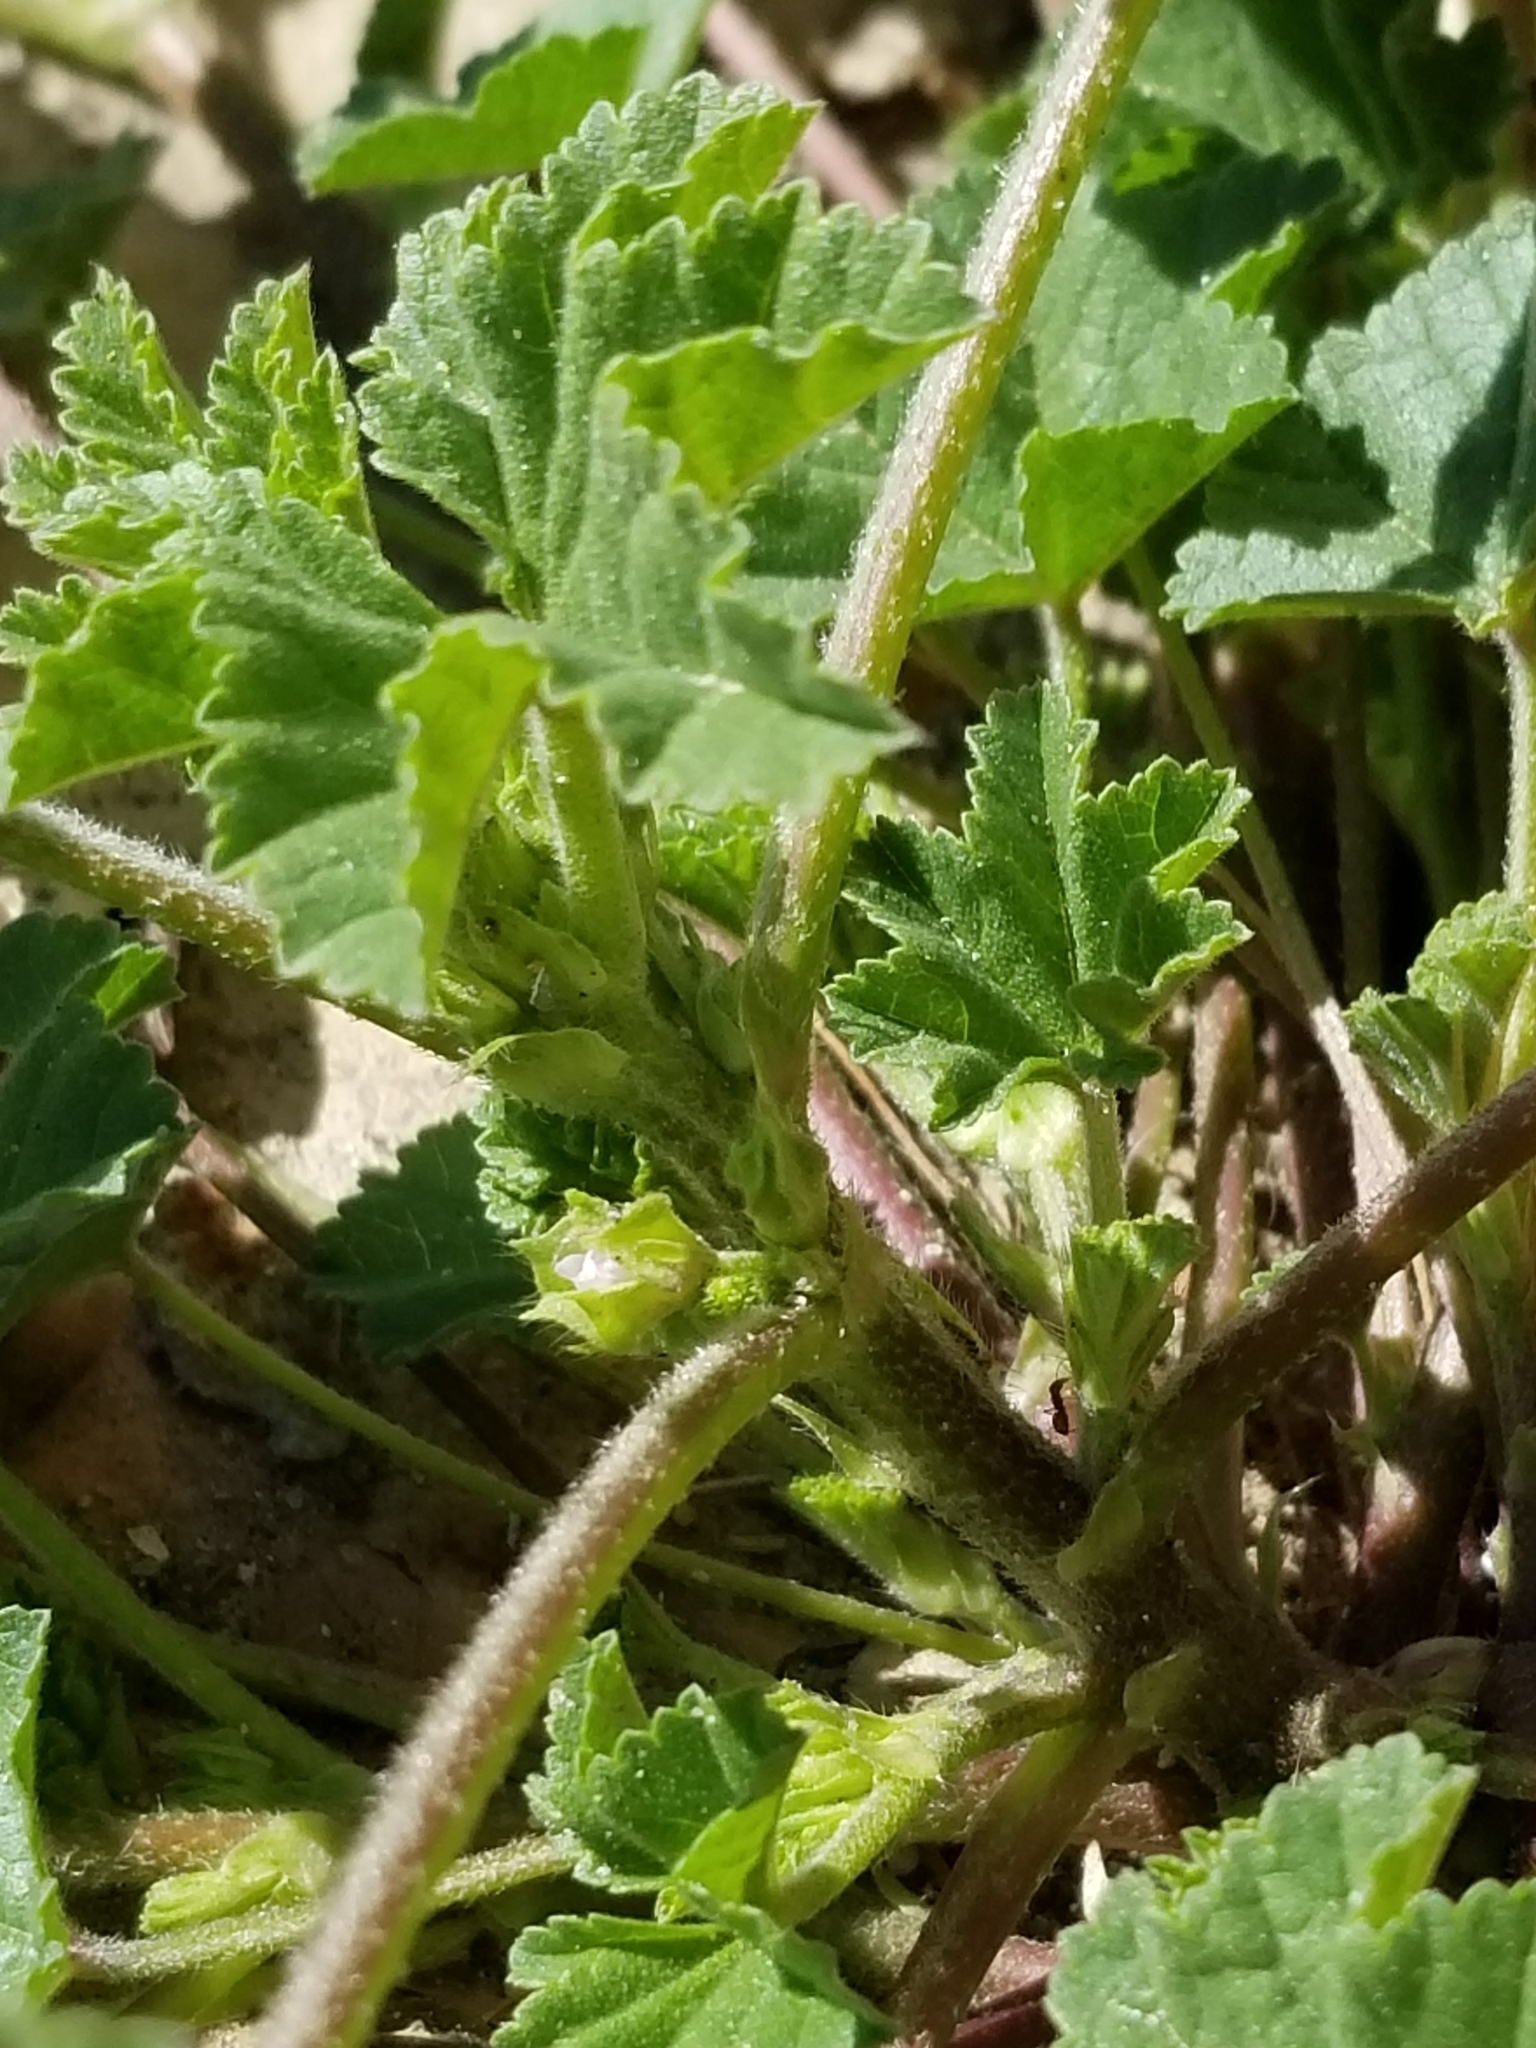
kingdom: Plantae
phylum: Tracheophyta
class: Magnoliopsida
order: Malvales
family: Malvaceae
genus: Malva
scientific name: Malva parviflora
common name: Least mallow
